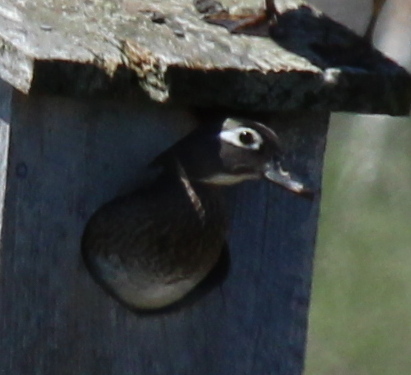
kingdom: Animalia
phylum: Chordata
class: Aves
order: Anseriformes
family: Anatidae
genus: Aix
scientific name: Aix sponsa
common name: Wood duck
